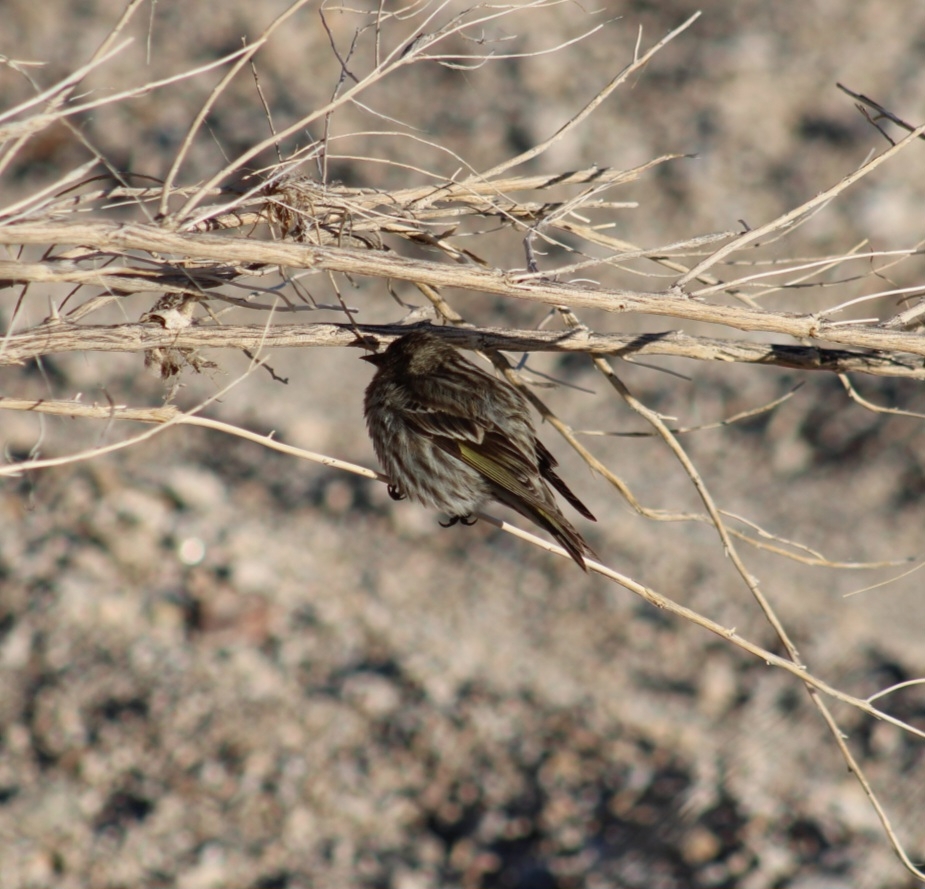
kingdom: Animalia
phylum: Chordata
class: Aves
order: Passeriformes
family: Fringillidae
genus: Spinus
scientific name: Spinus pinus
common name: Pine siskin
